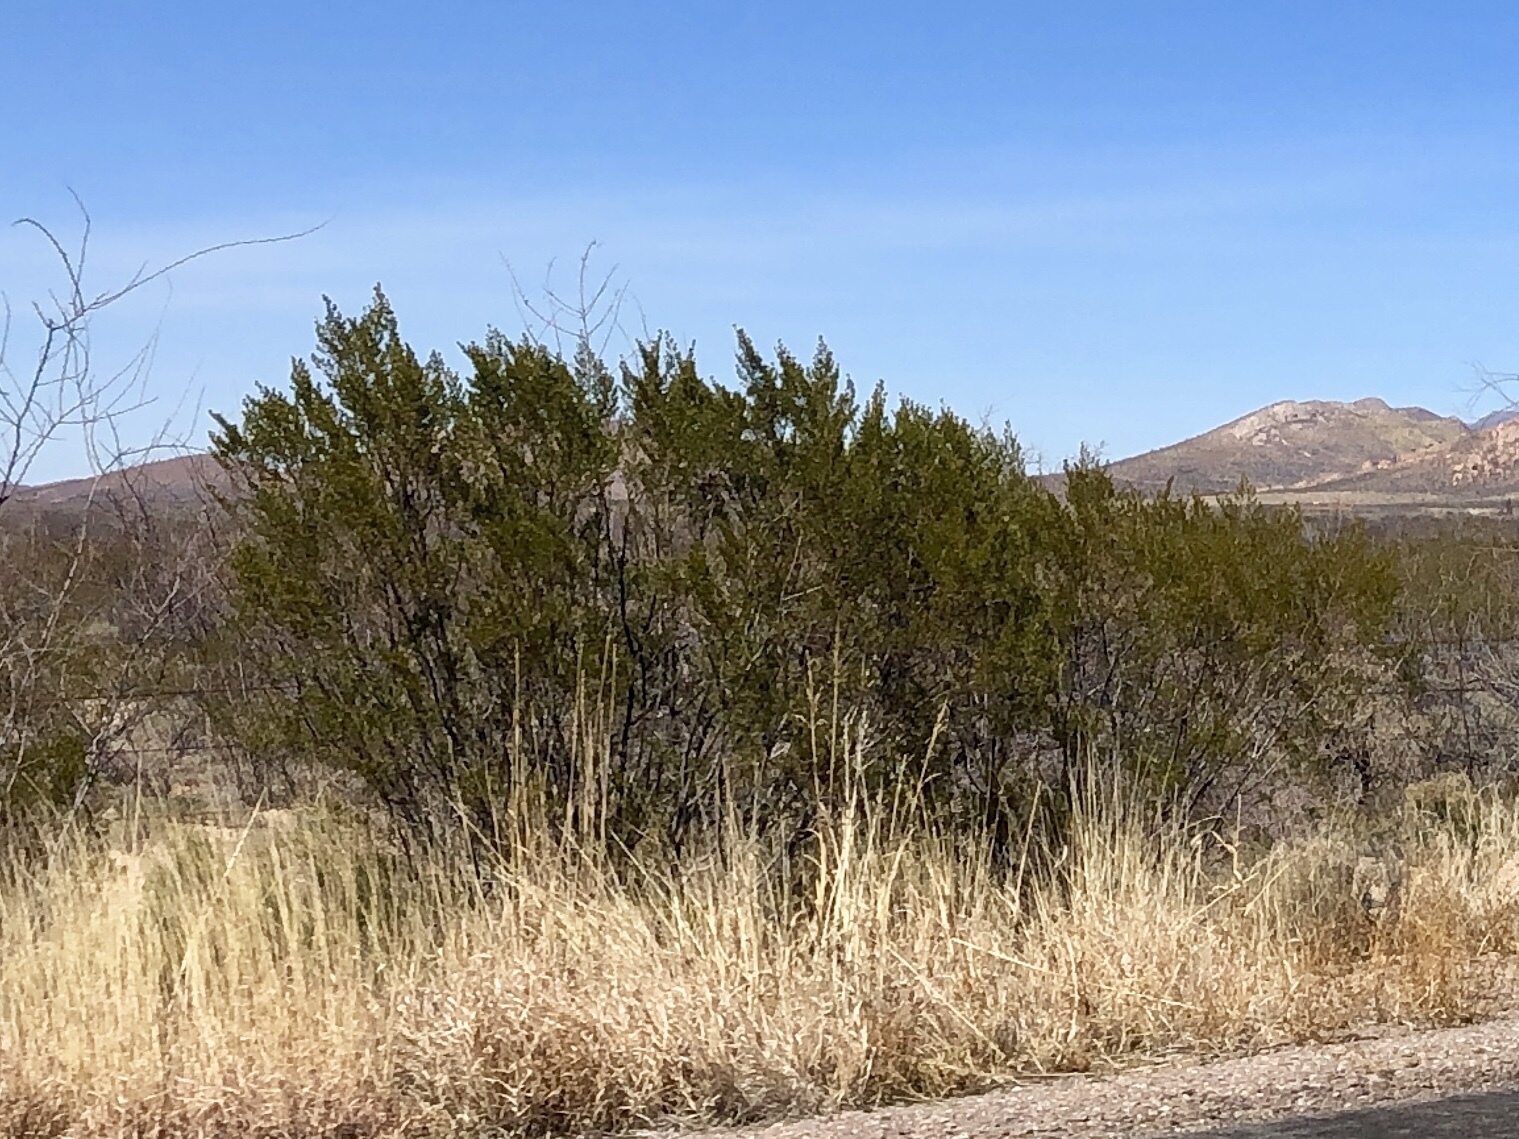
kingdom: Plantae
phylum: Tracheophyta
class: Magnoliopsida
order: Zygophyllales
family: Zygophyllaceae
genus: Larrea
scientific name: Larrea tridentata
